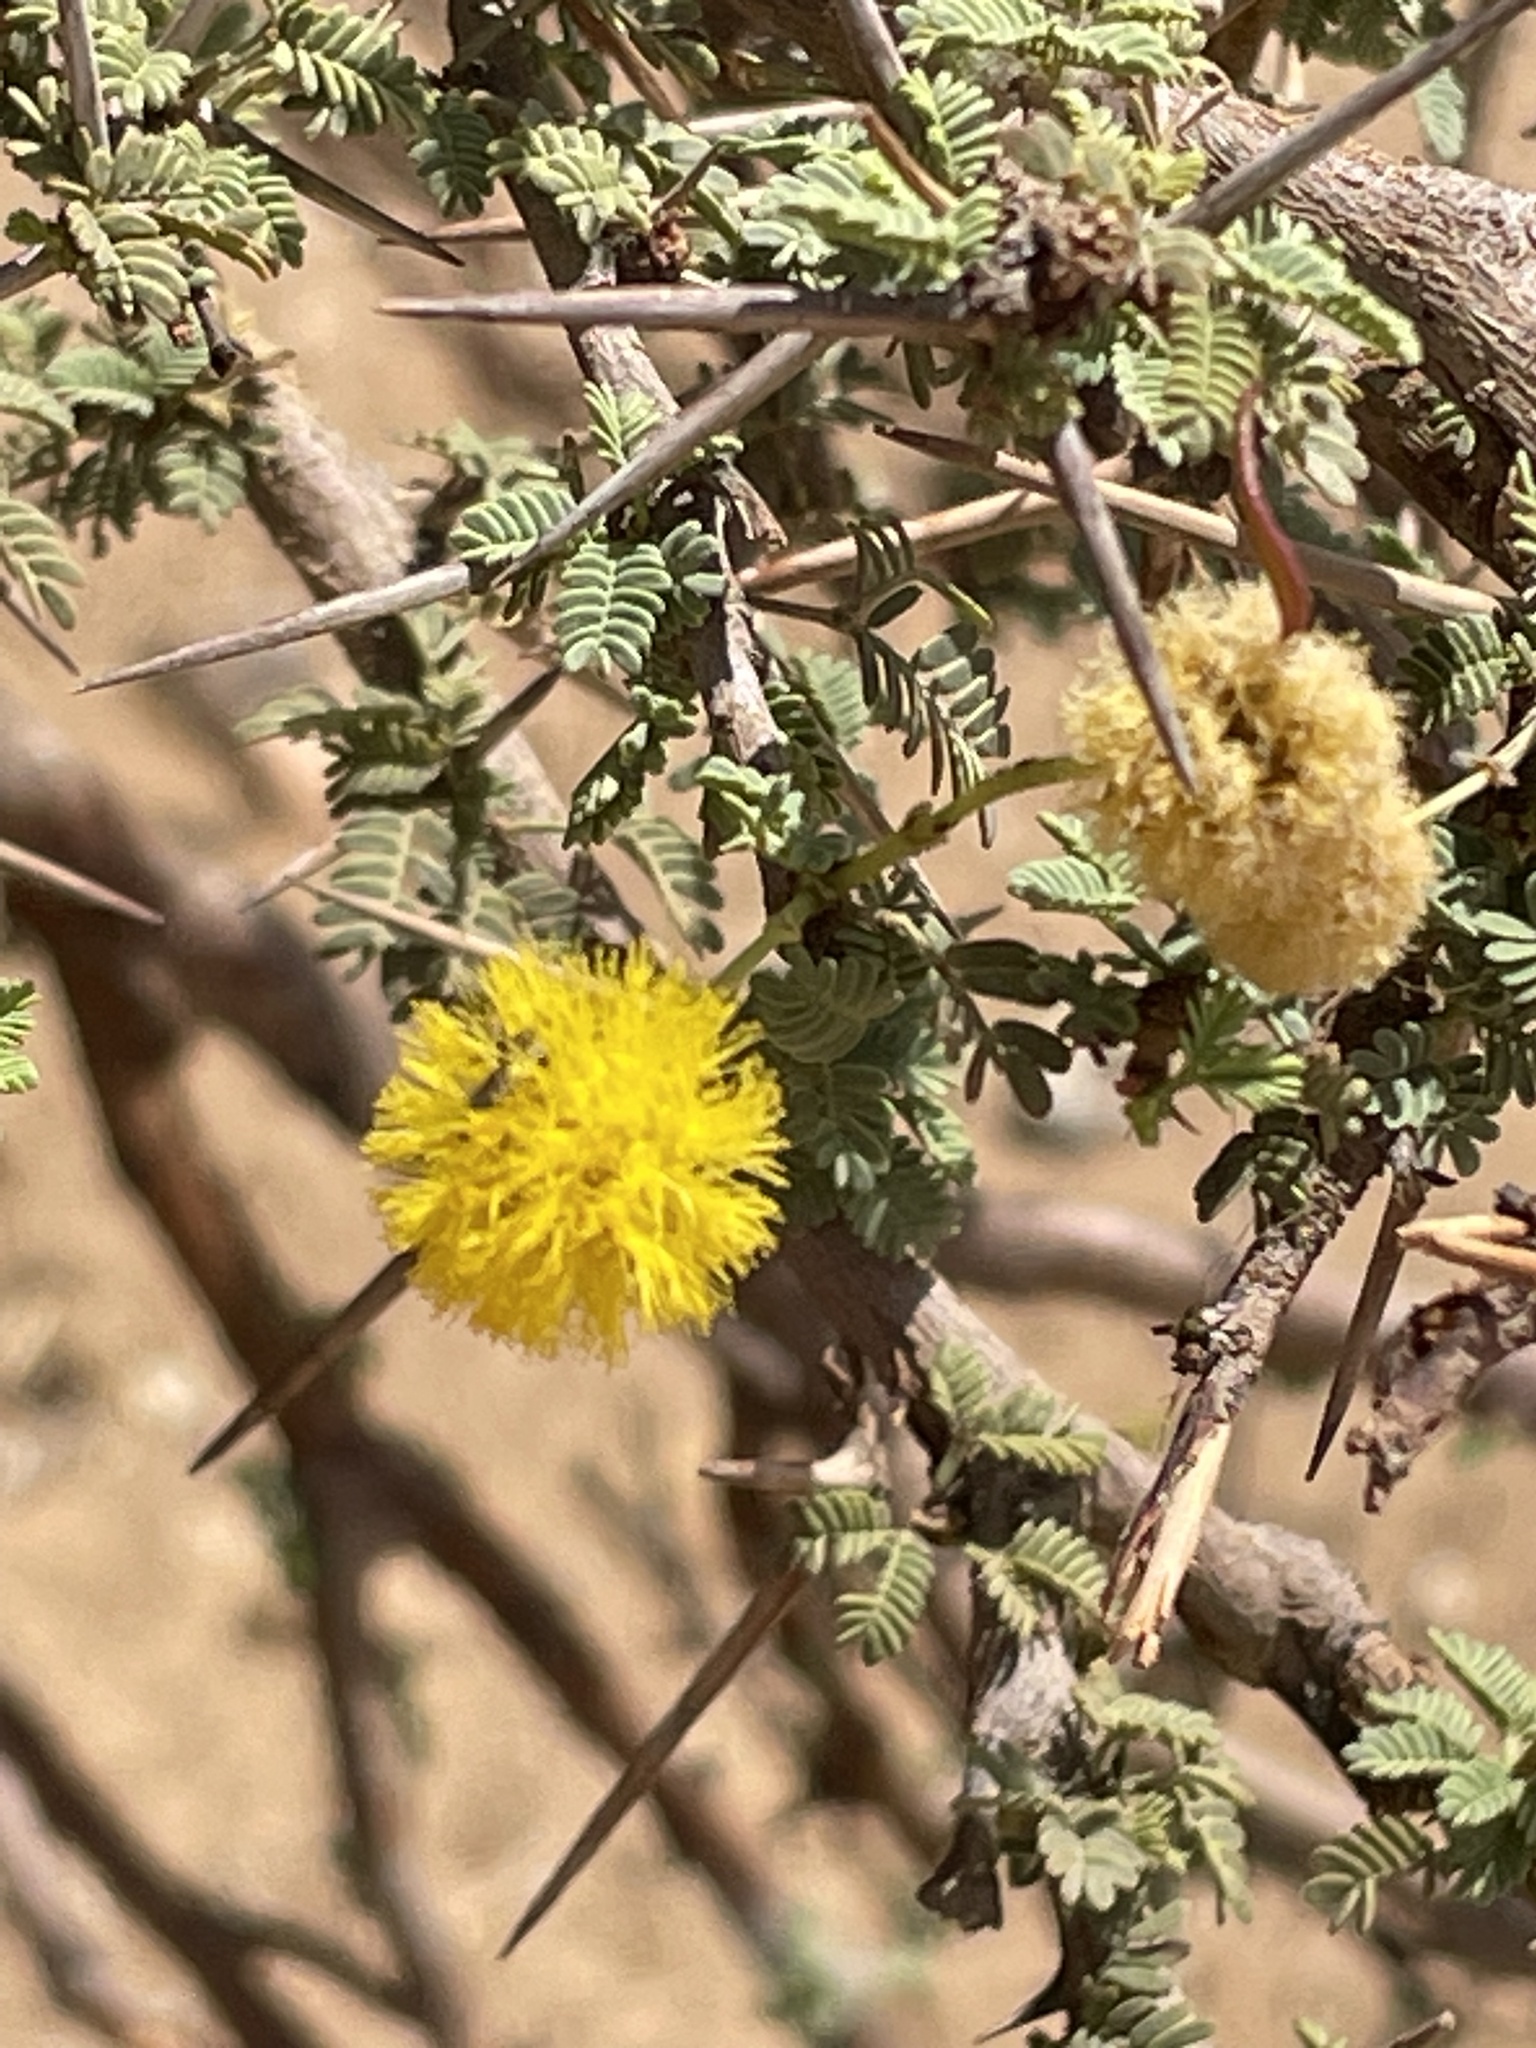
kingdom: Plantae
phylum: Tracheophyta
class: Magnoliopsida
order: Fabales
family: Fabaceae
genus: Vachellia
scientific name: Vachellia flava
